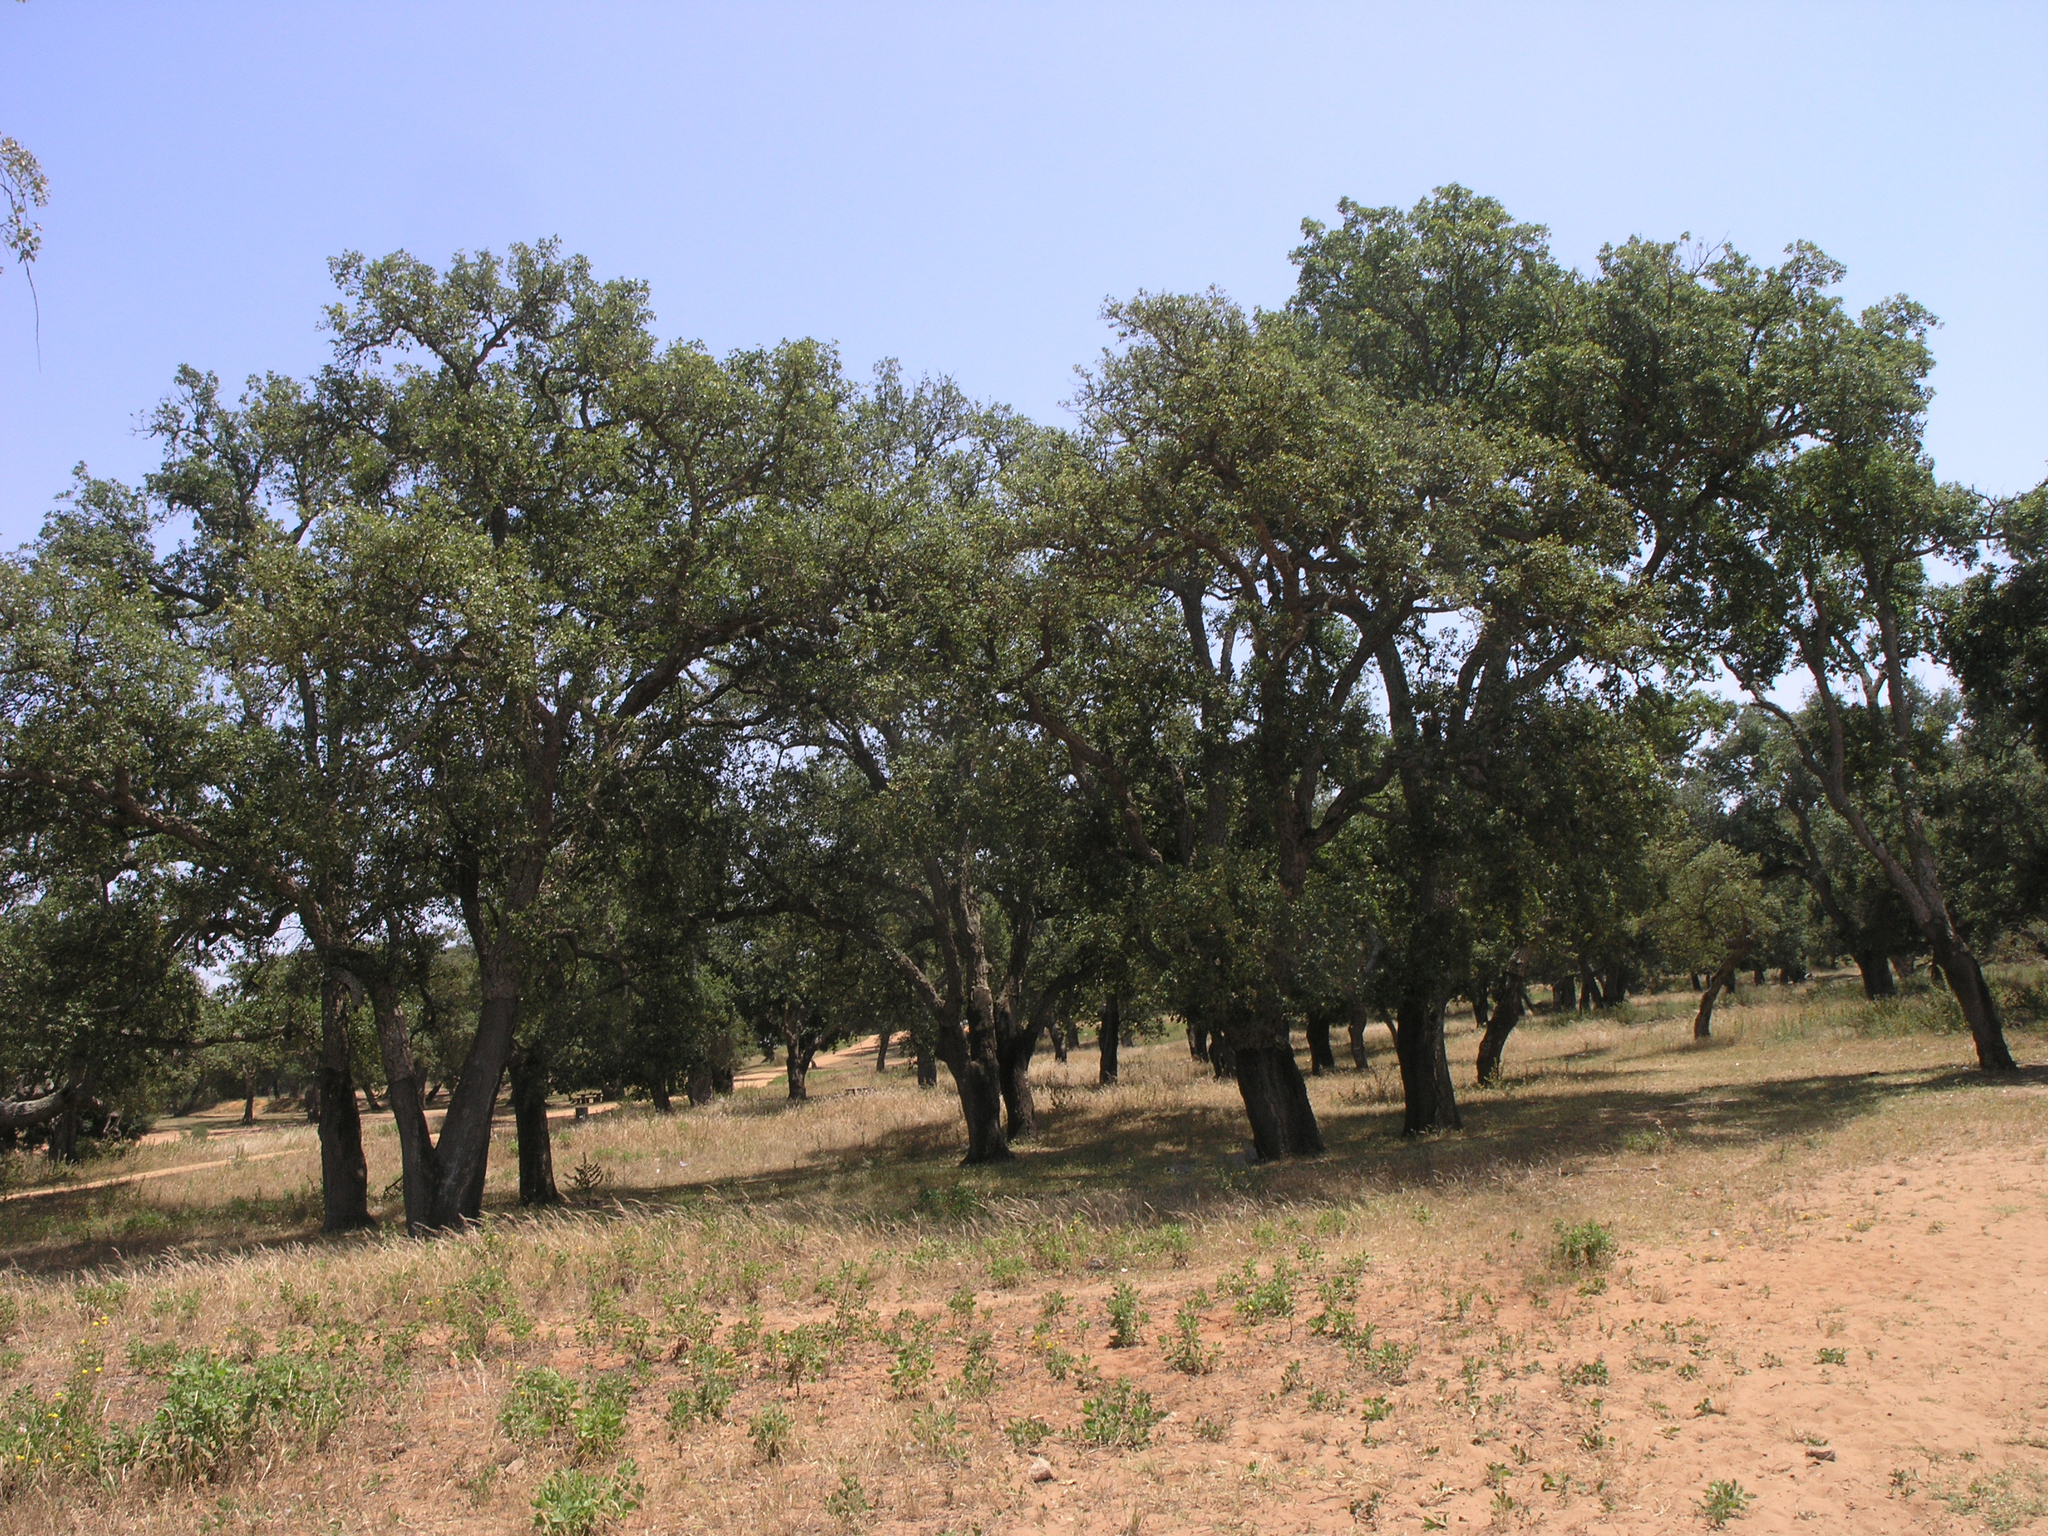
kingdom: Plantae
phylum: Tracheophyta
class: Magnoliopsida
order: Fagales
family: Fagaceae
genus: Quercus
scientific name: Quercus suber
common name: Cork oak
